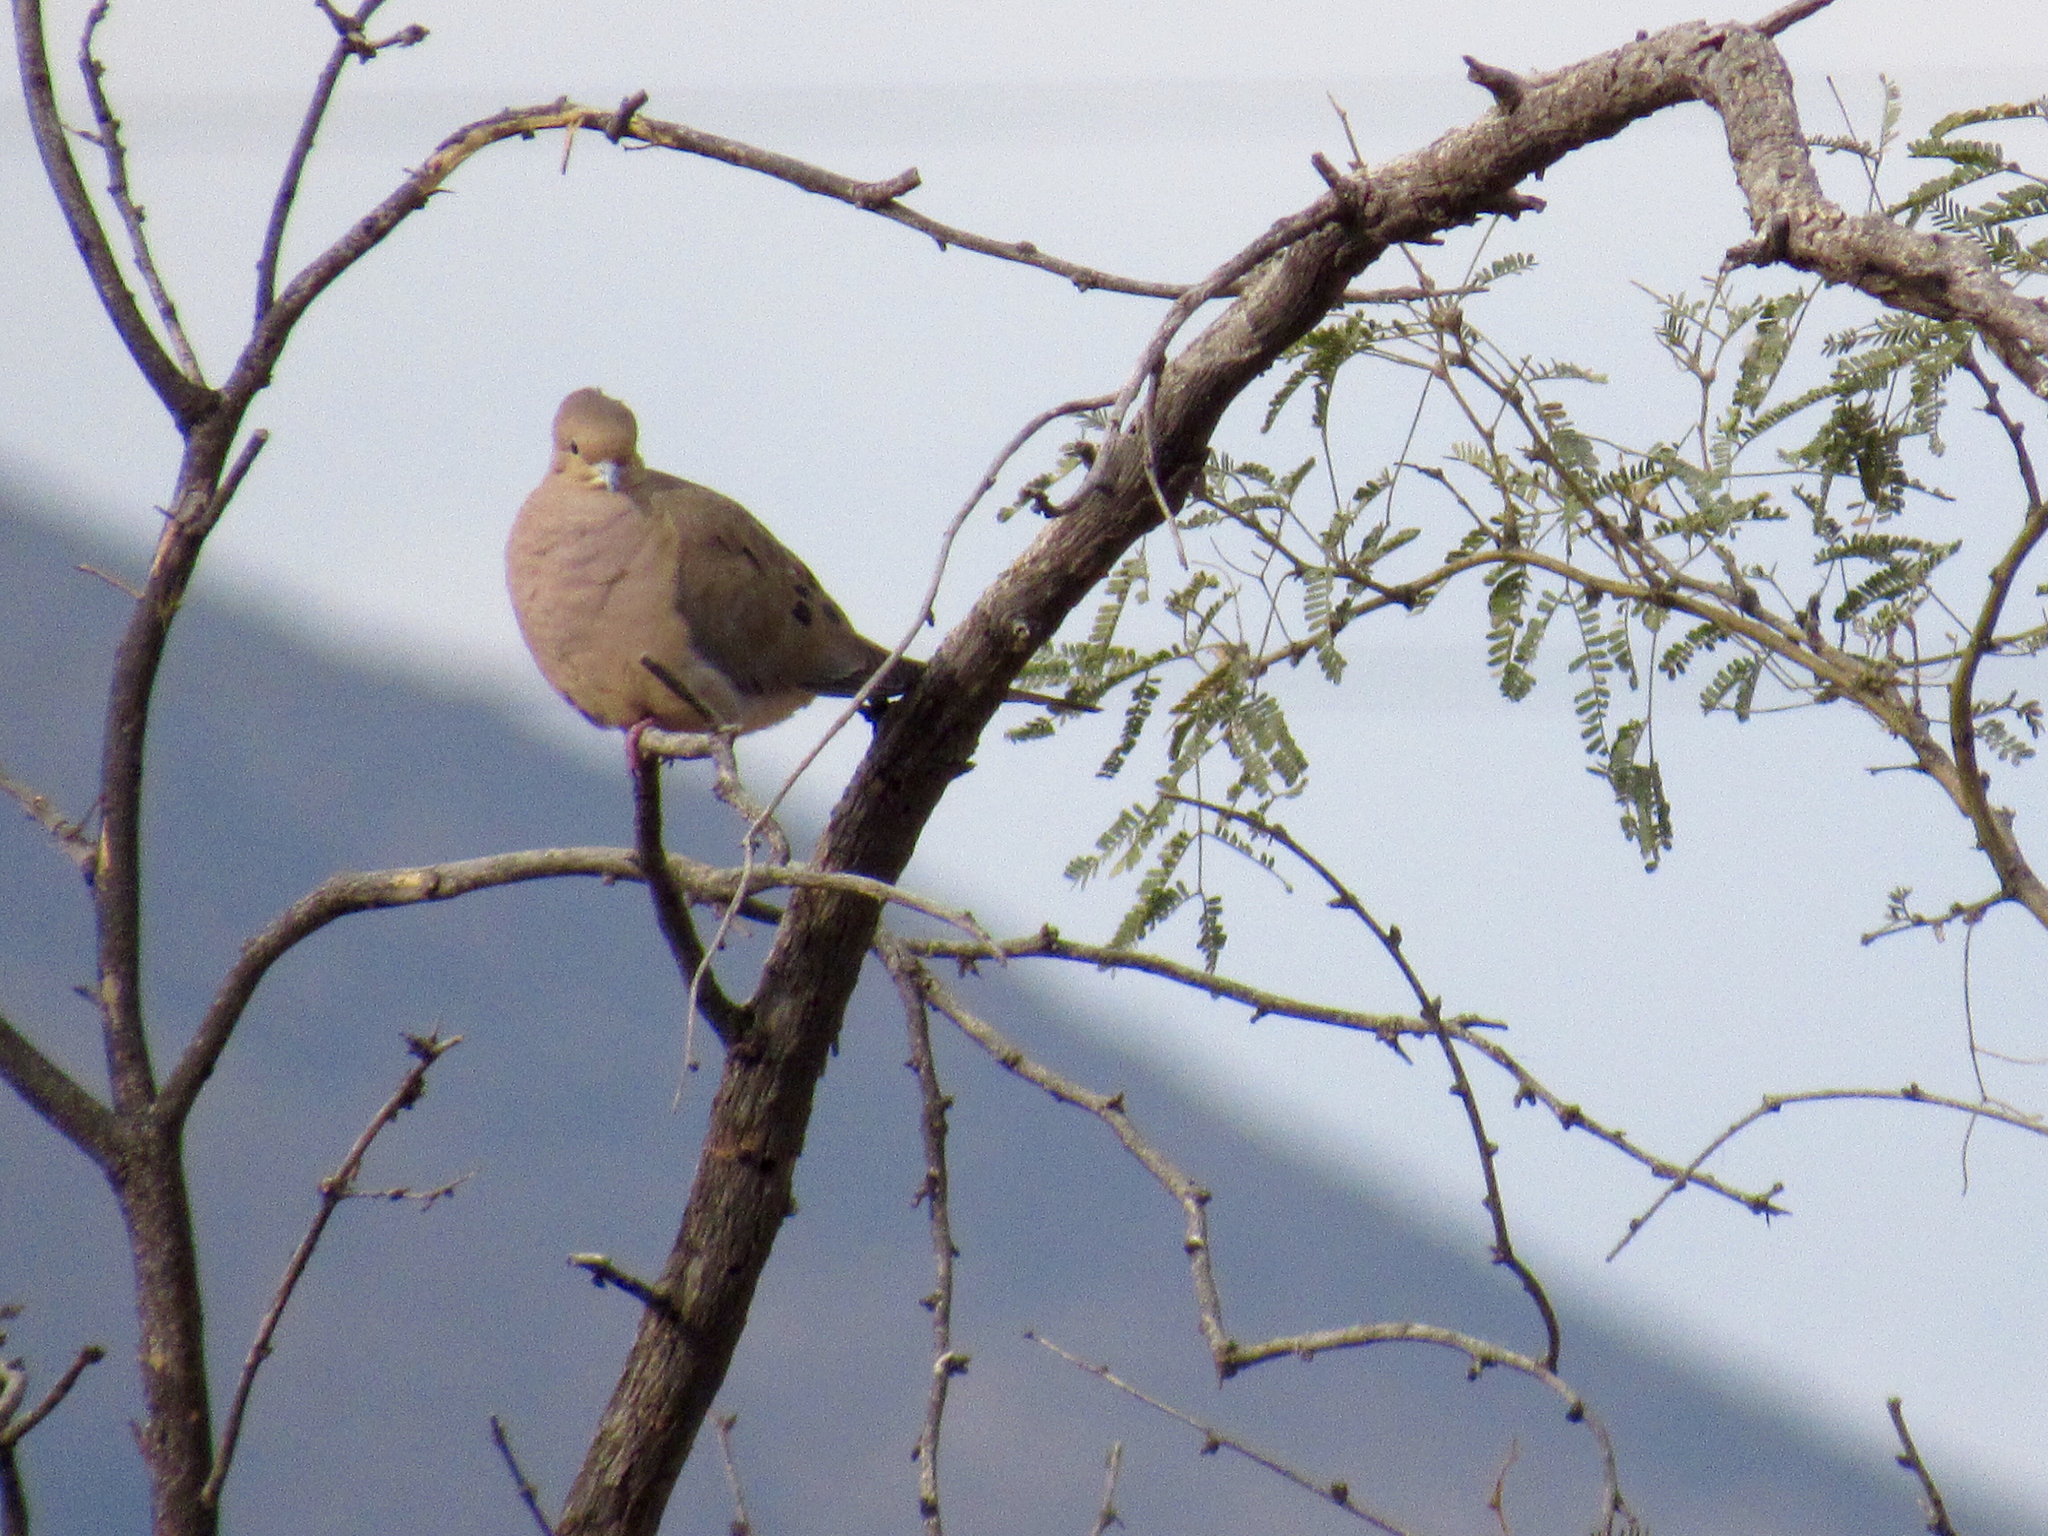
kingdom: Animalia
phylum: Chordata
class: Aves
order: Columbiformes
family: Columbidae
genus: Zenaida
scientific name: Zenaida macroura
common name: Mourning dove
